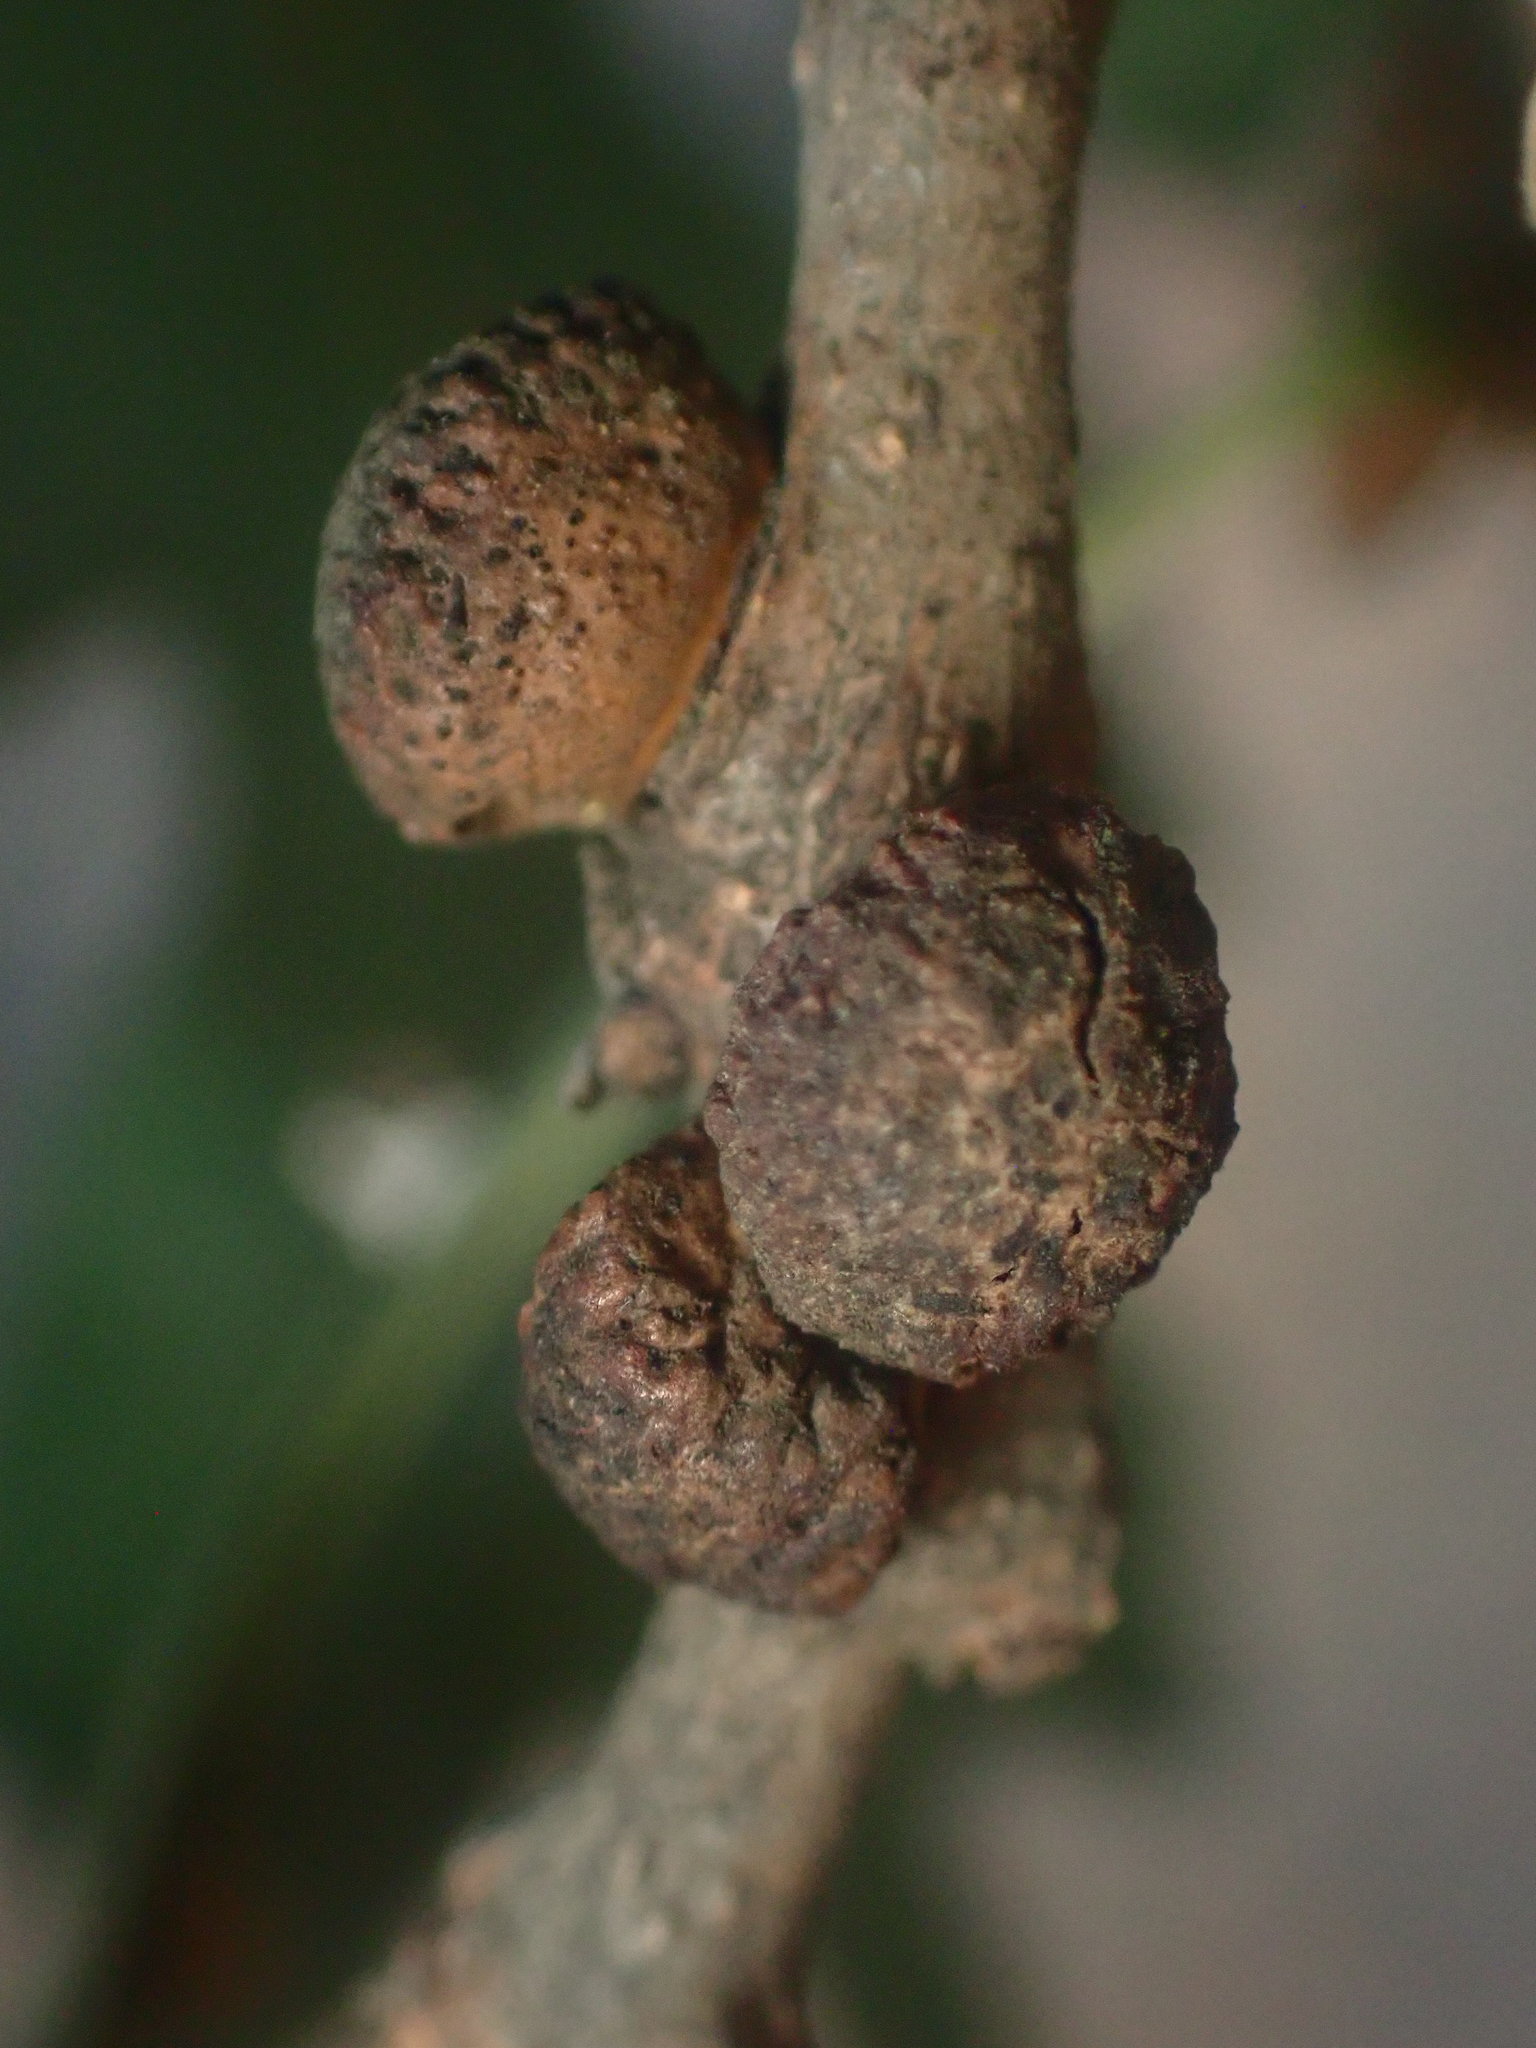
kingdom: Animalia
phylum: Arthropoda
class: Insecta
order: Hymenoptera
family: Cynipidae
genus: Disholcaspis
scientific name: Disholcaspis
